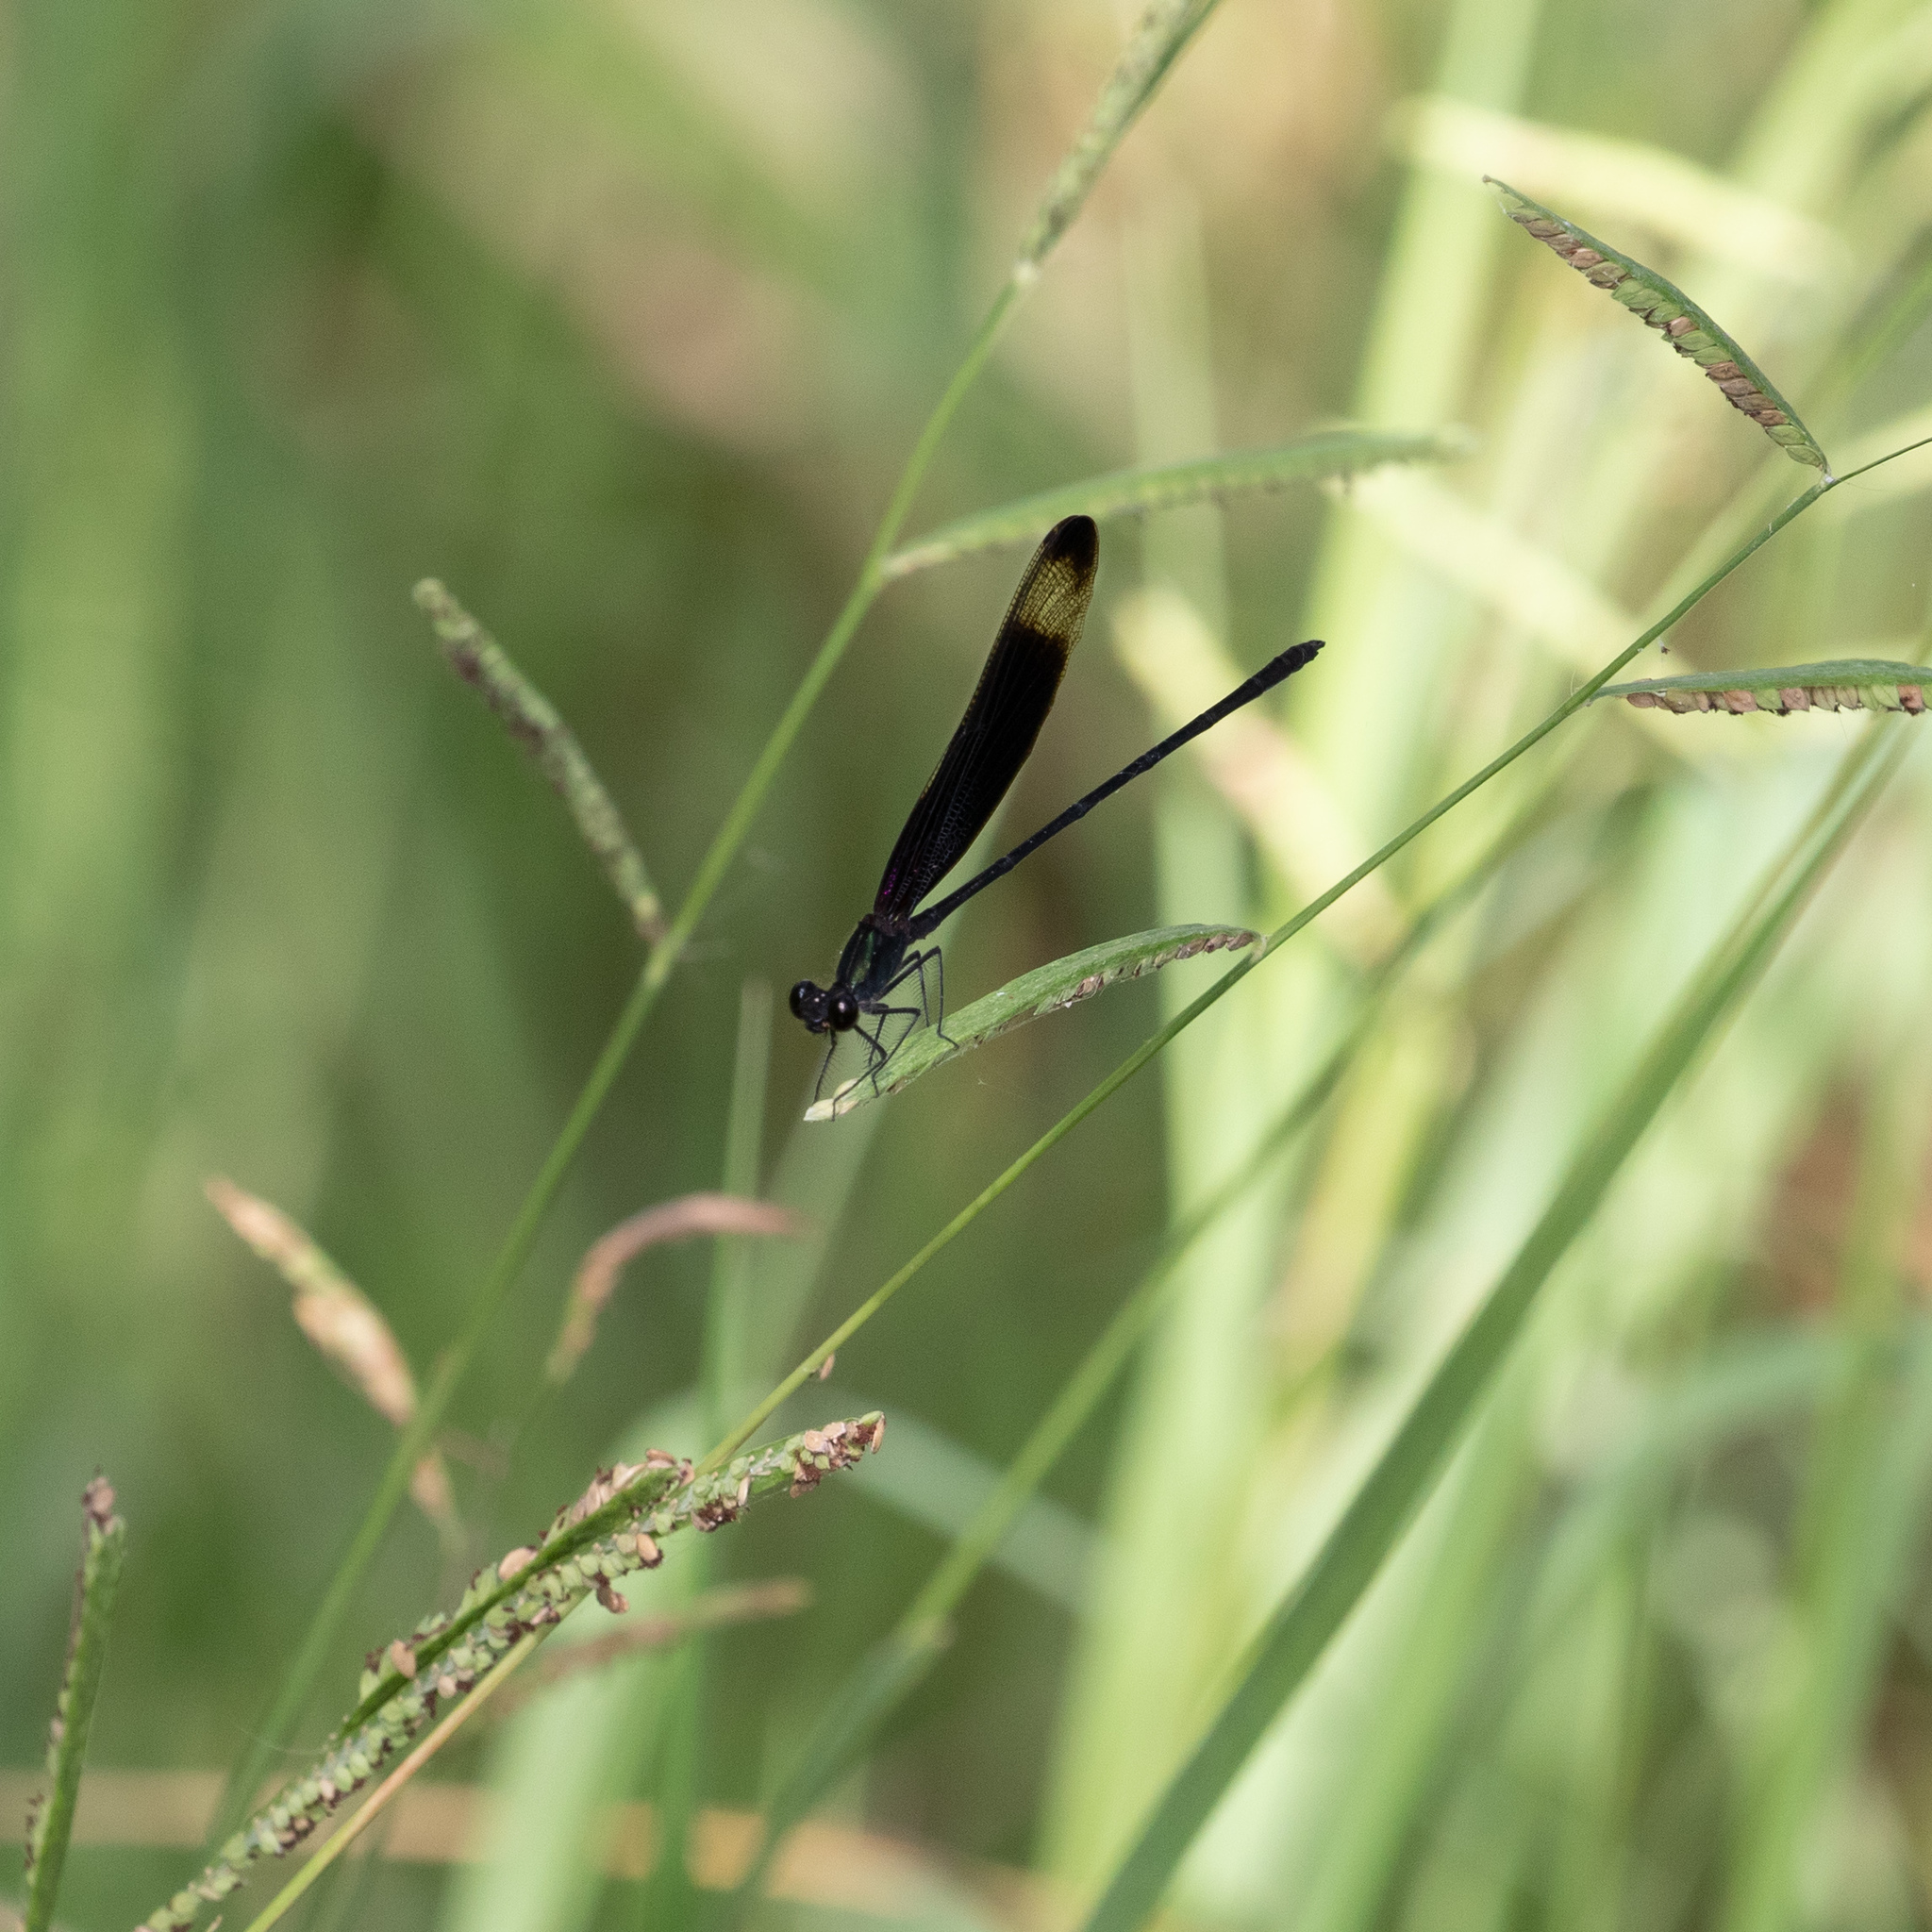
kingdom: Animalia
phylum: Arthropoda
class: Insecta
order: Odonata
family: Calopterygidae
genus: Hetaerina
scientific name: Hetaerina titia
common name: Smoky rubyspot
